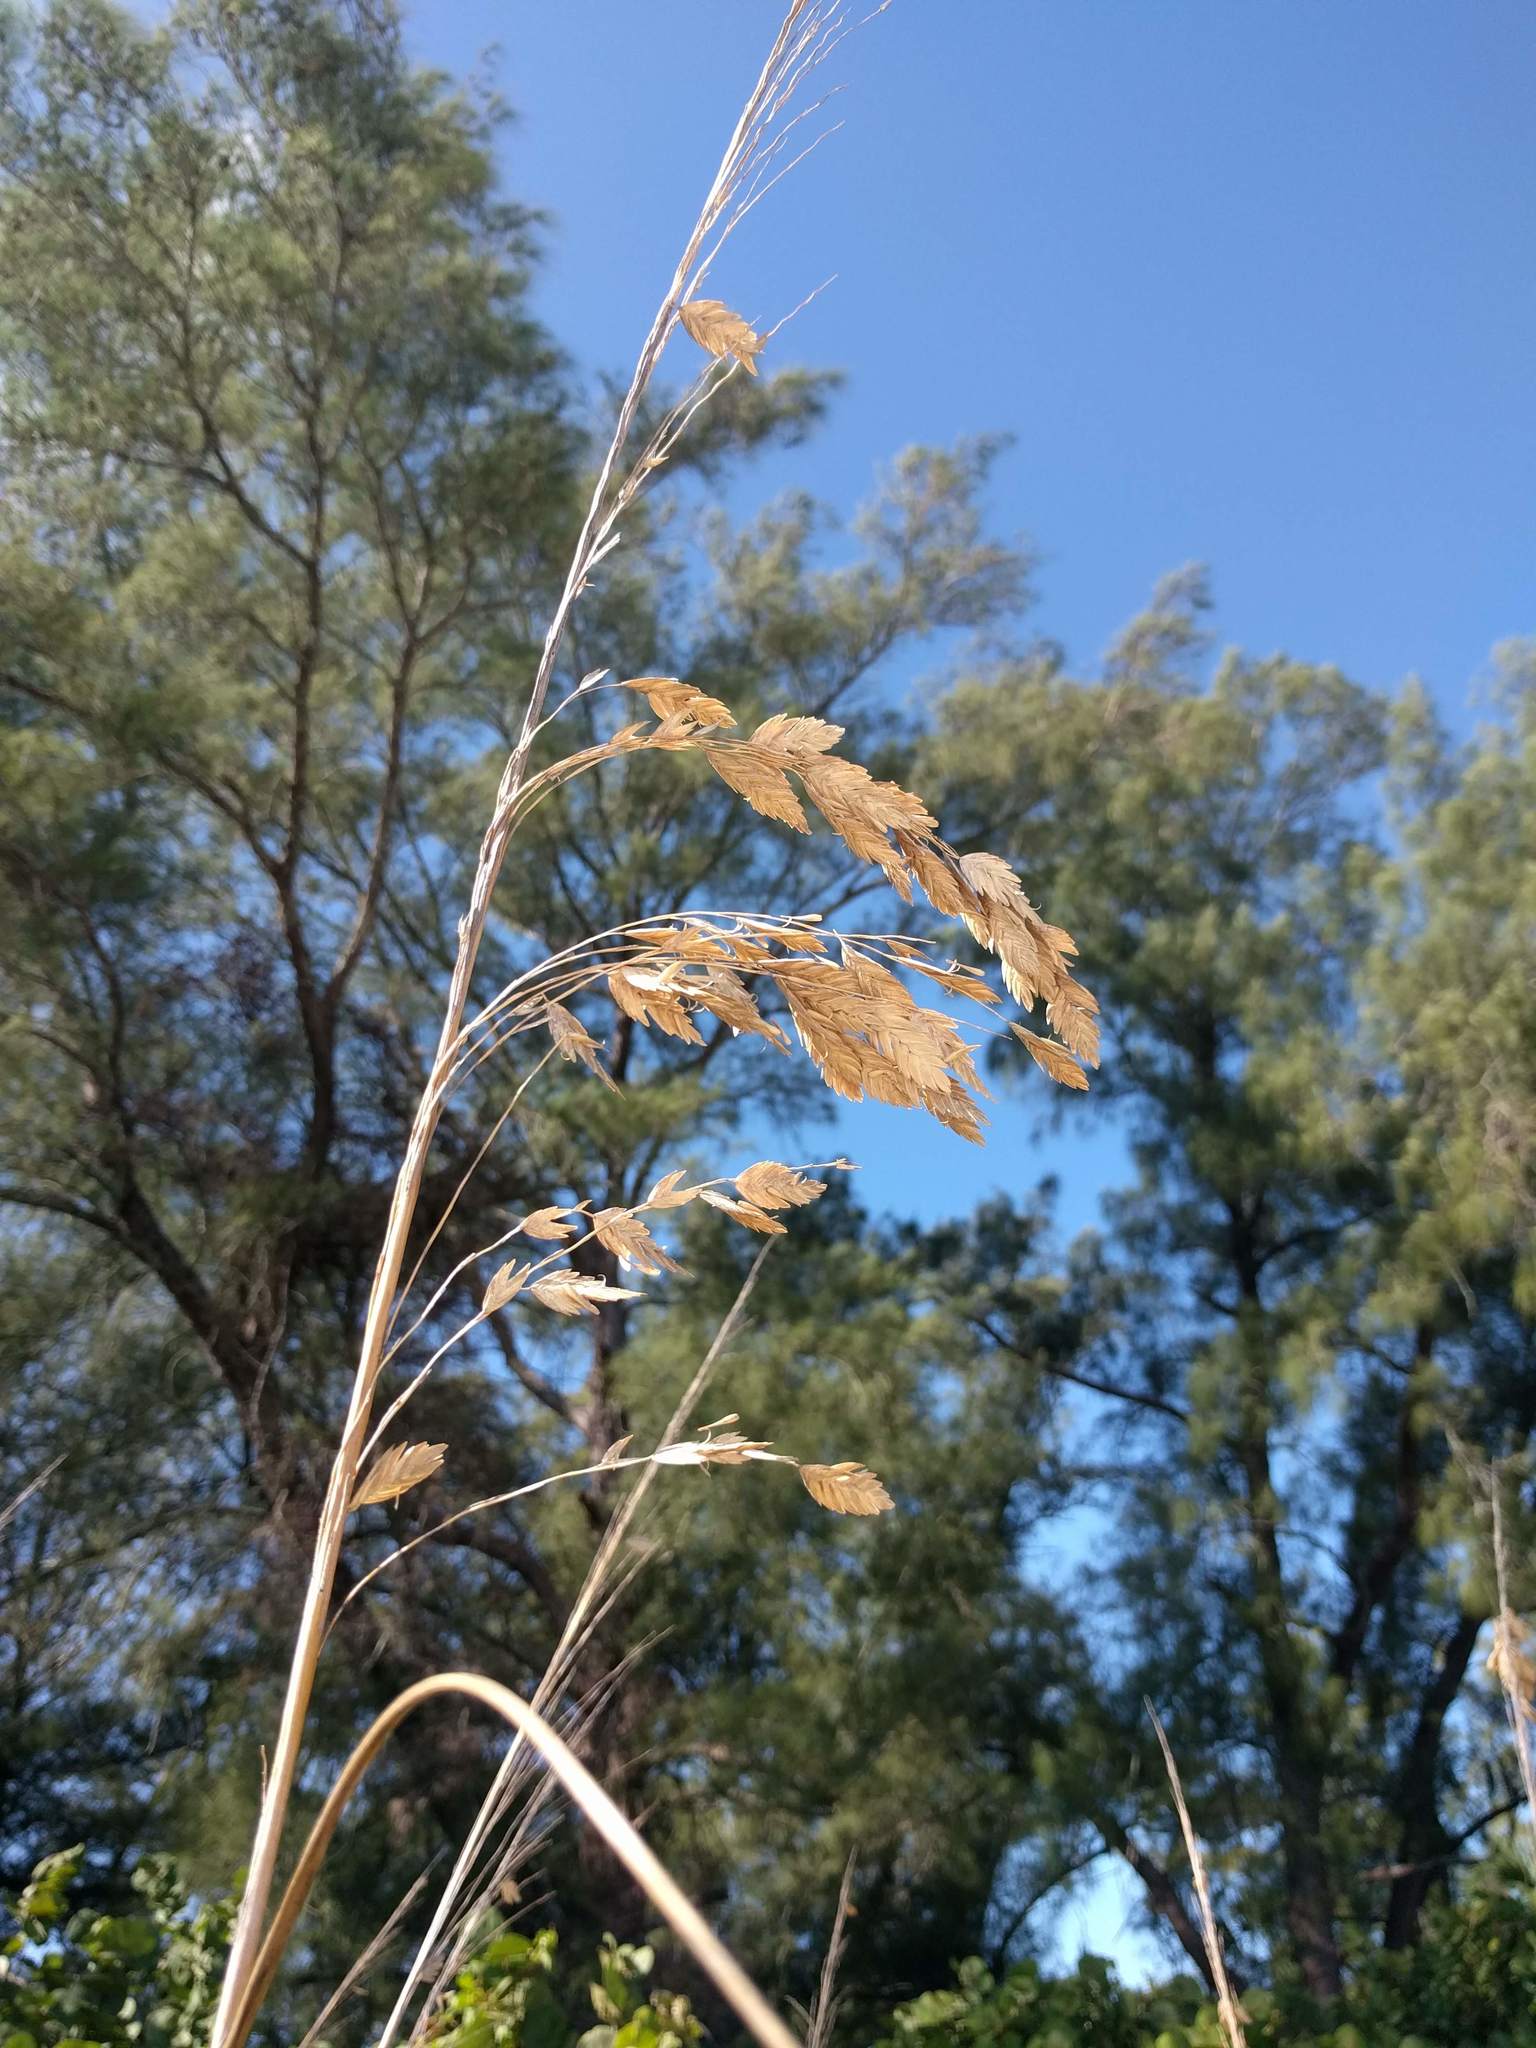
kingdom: Plantae
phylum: Tracheophyta
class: Liliopsida
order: Poales
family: Poaceae
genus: Uniola
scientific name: Uniola paniculata
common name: Seaside-oats
